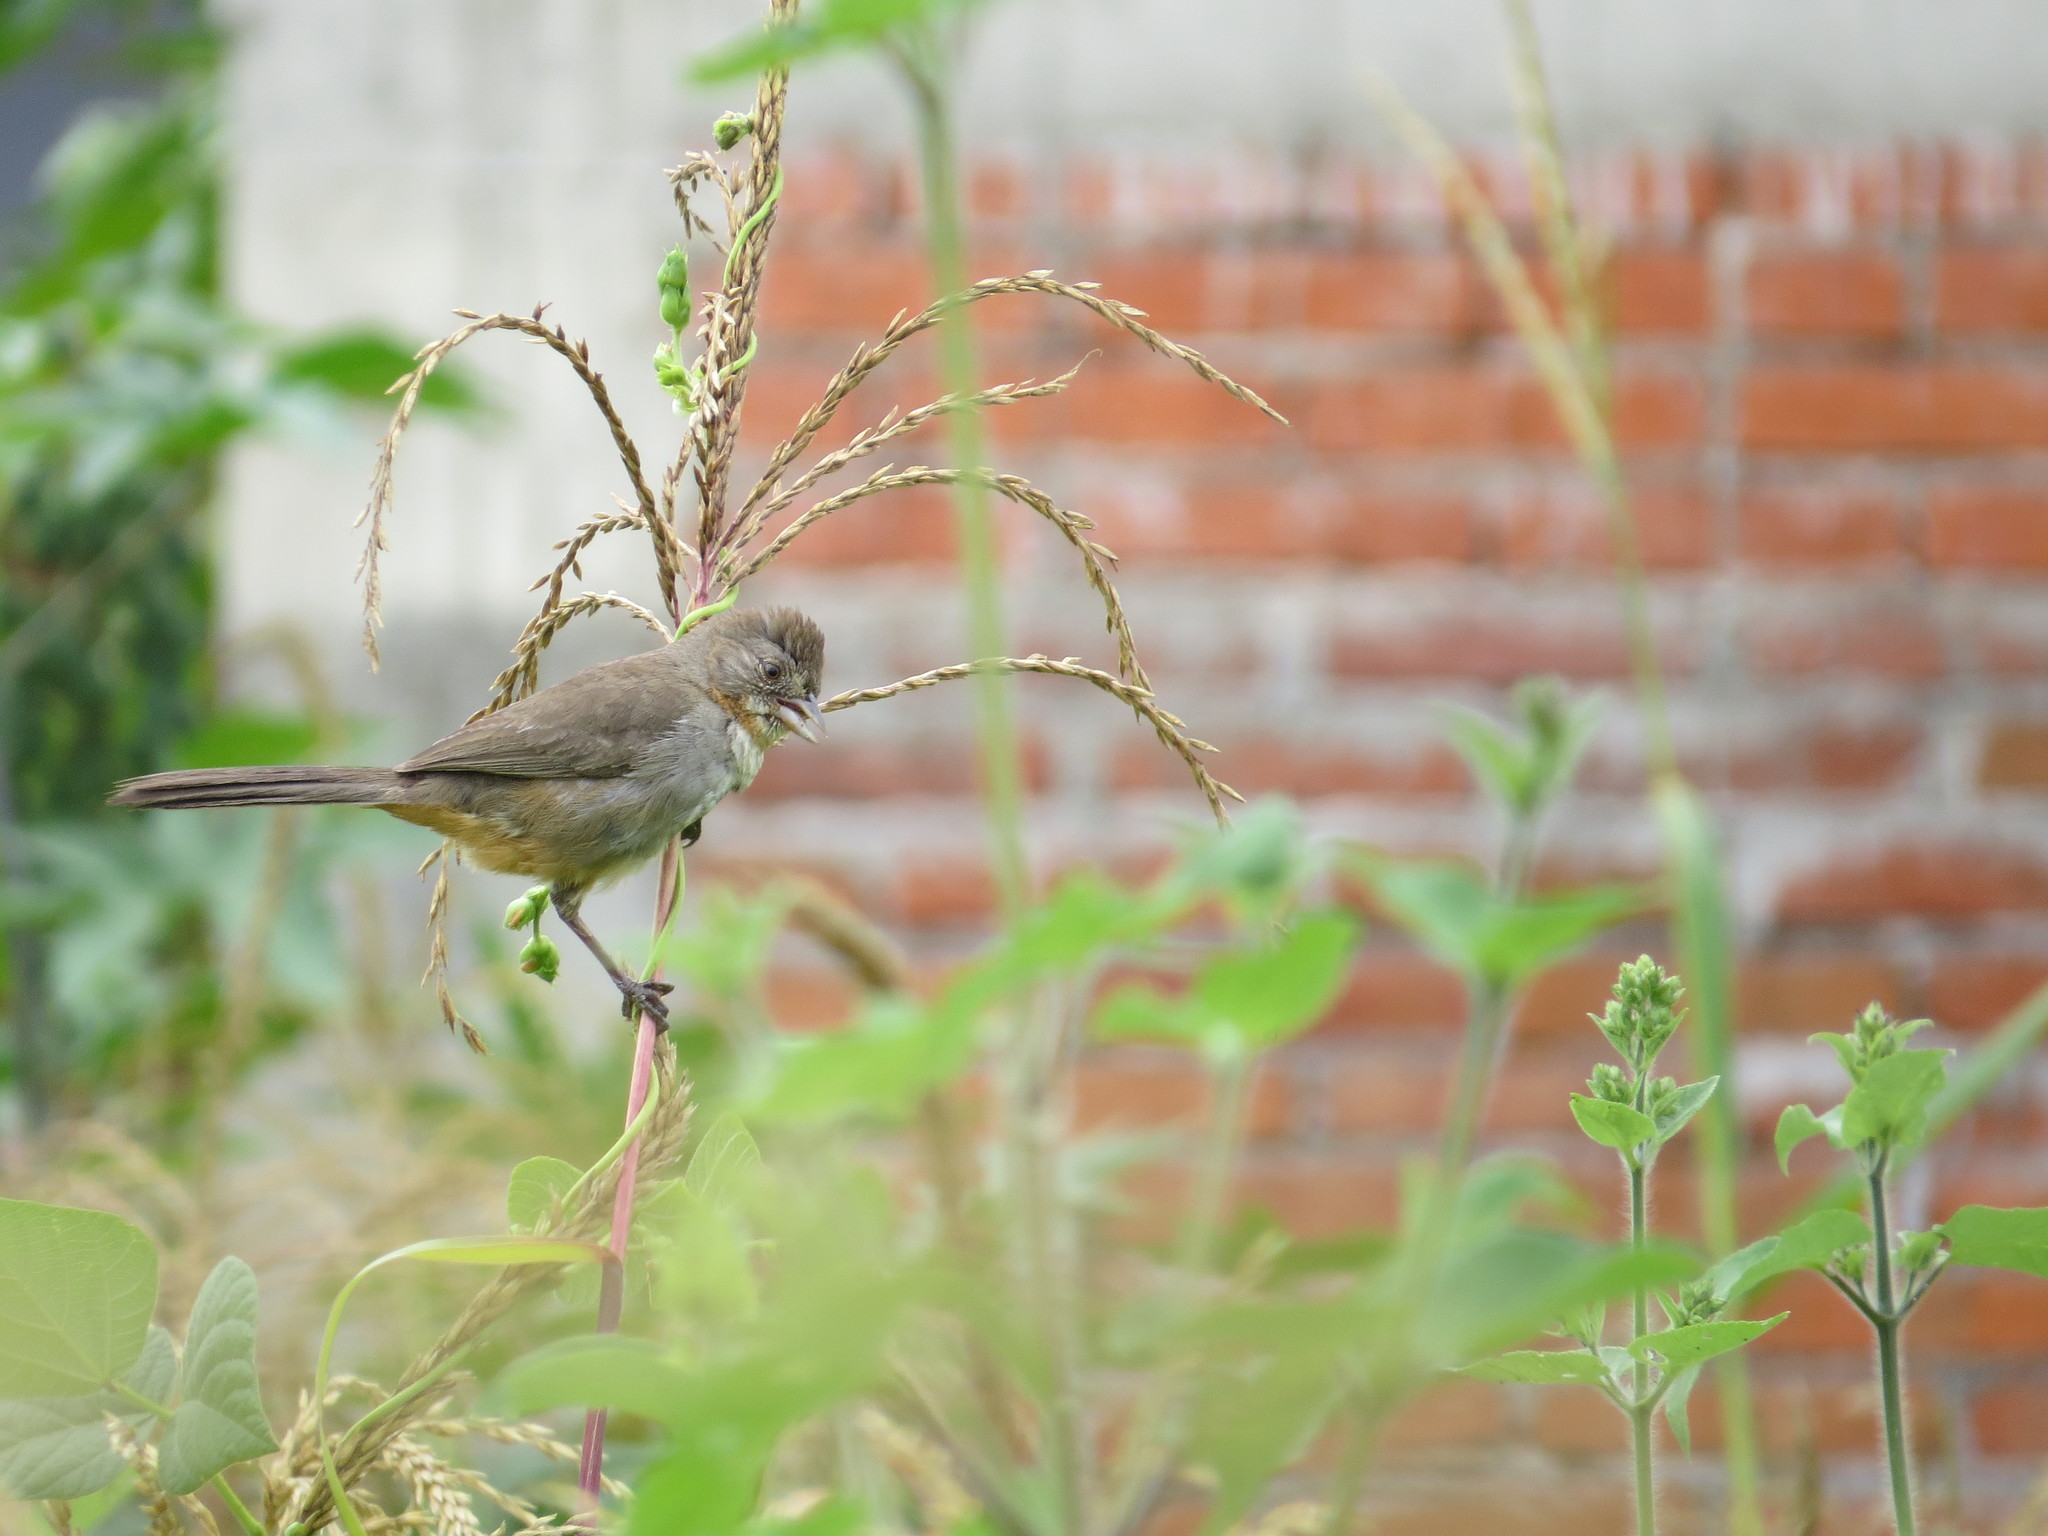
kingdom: Animalia
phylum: Chordata
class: Aves
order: Passeriformes
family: Passerellidae
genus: Melozone
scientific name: Melozone albicollis
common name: White-throated towhee
